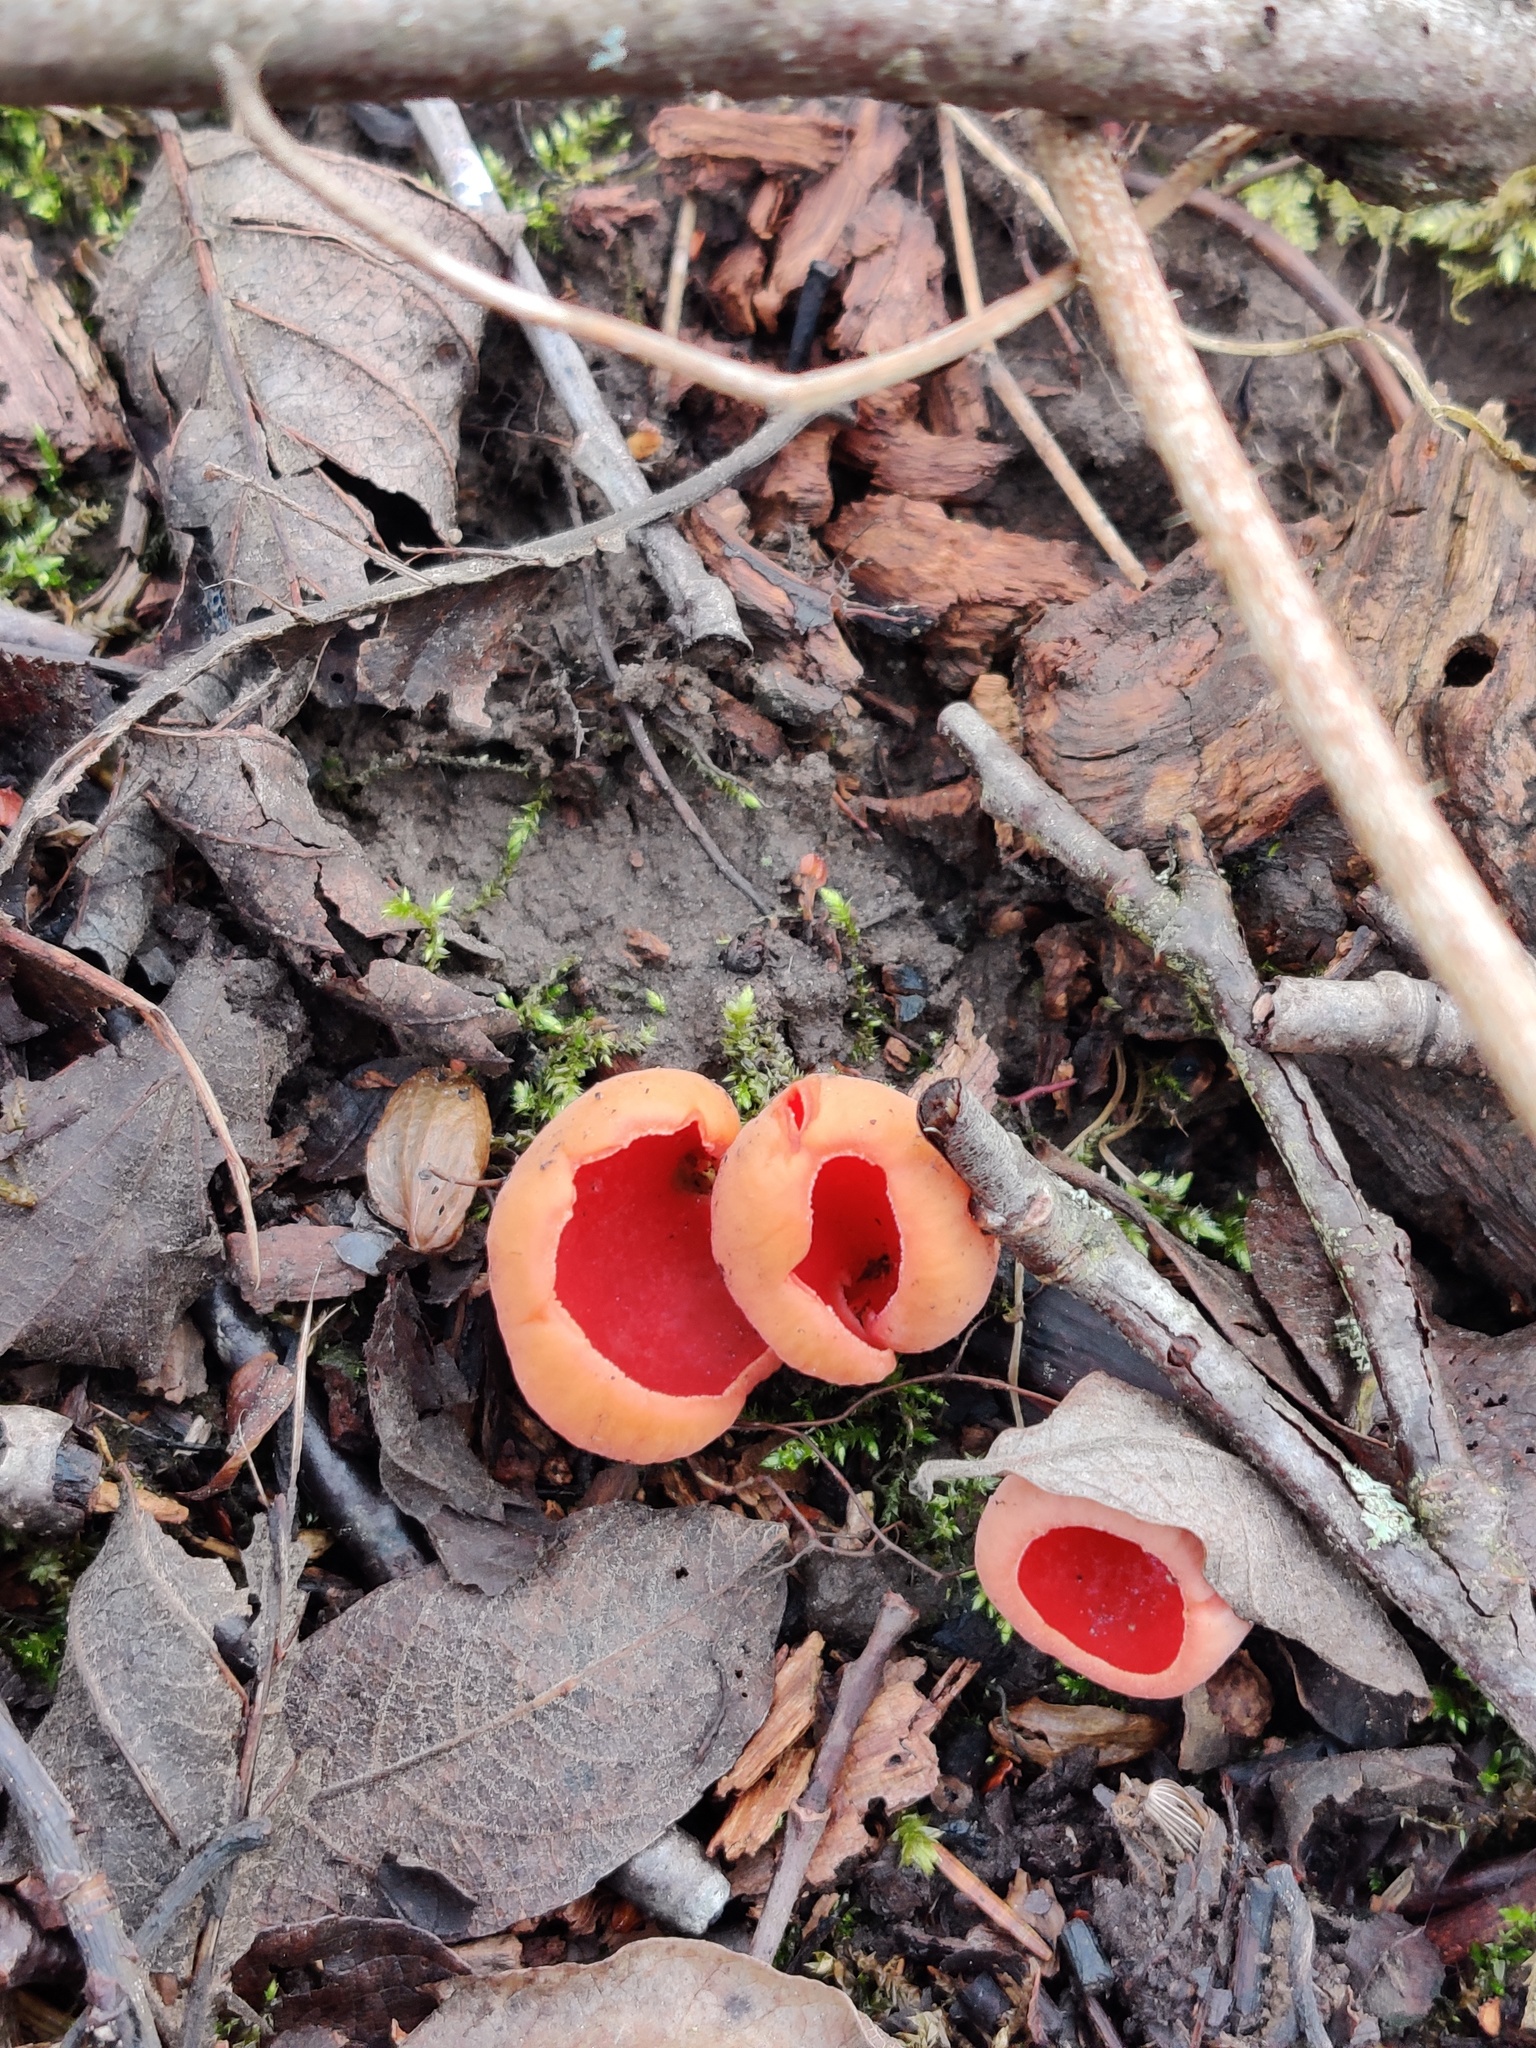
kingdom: Fungi
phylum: Ascomycota
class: Pezizomycetes
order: Pezizales
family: Sarcoscyphaceae
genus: Sarcoscypha
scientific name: Sarcoscypha austriaca
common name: Scarlet elfcup
